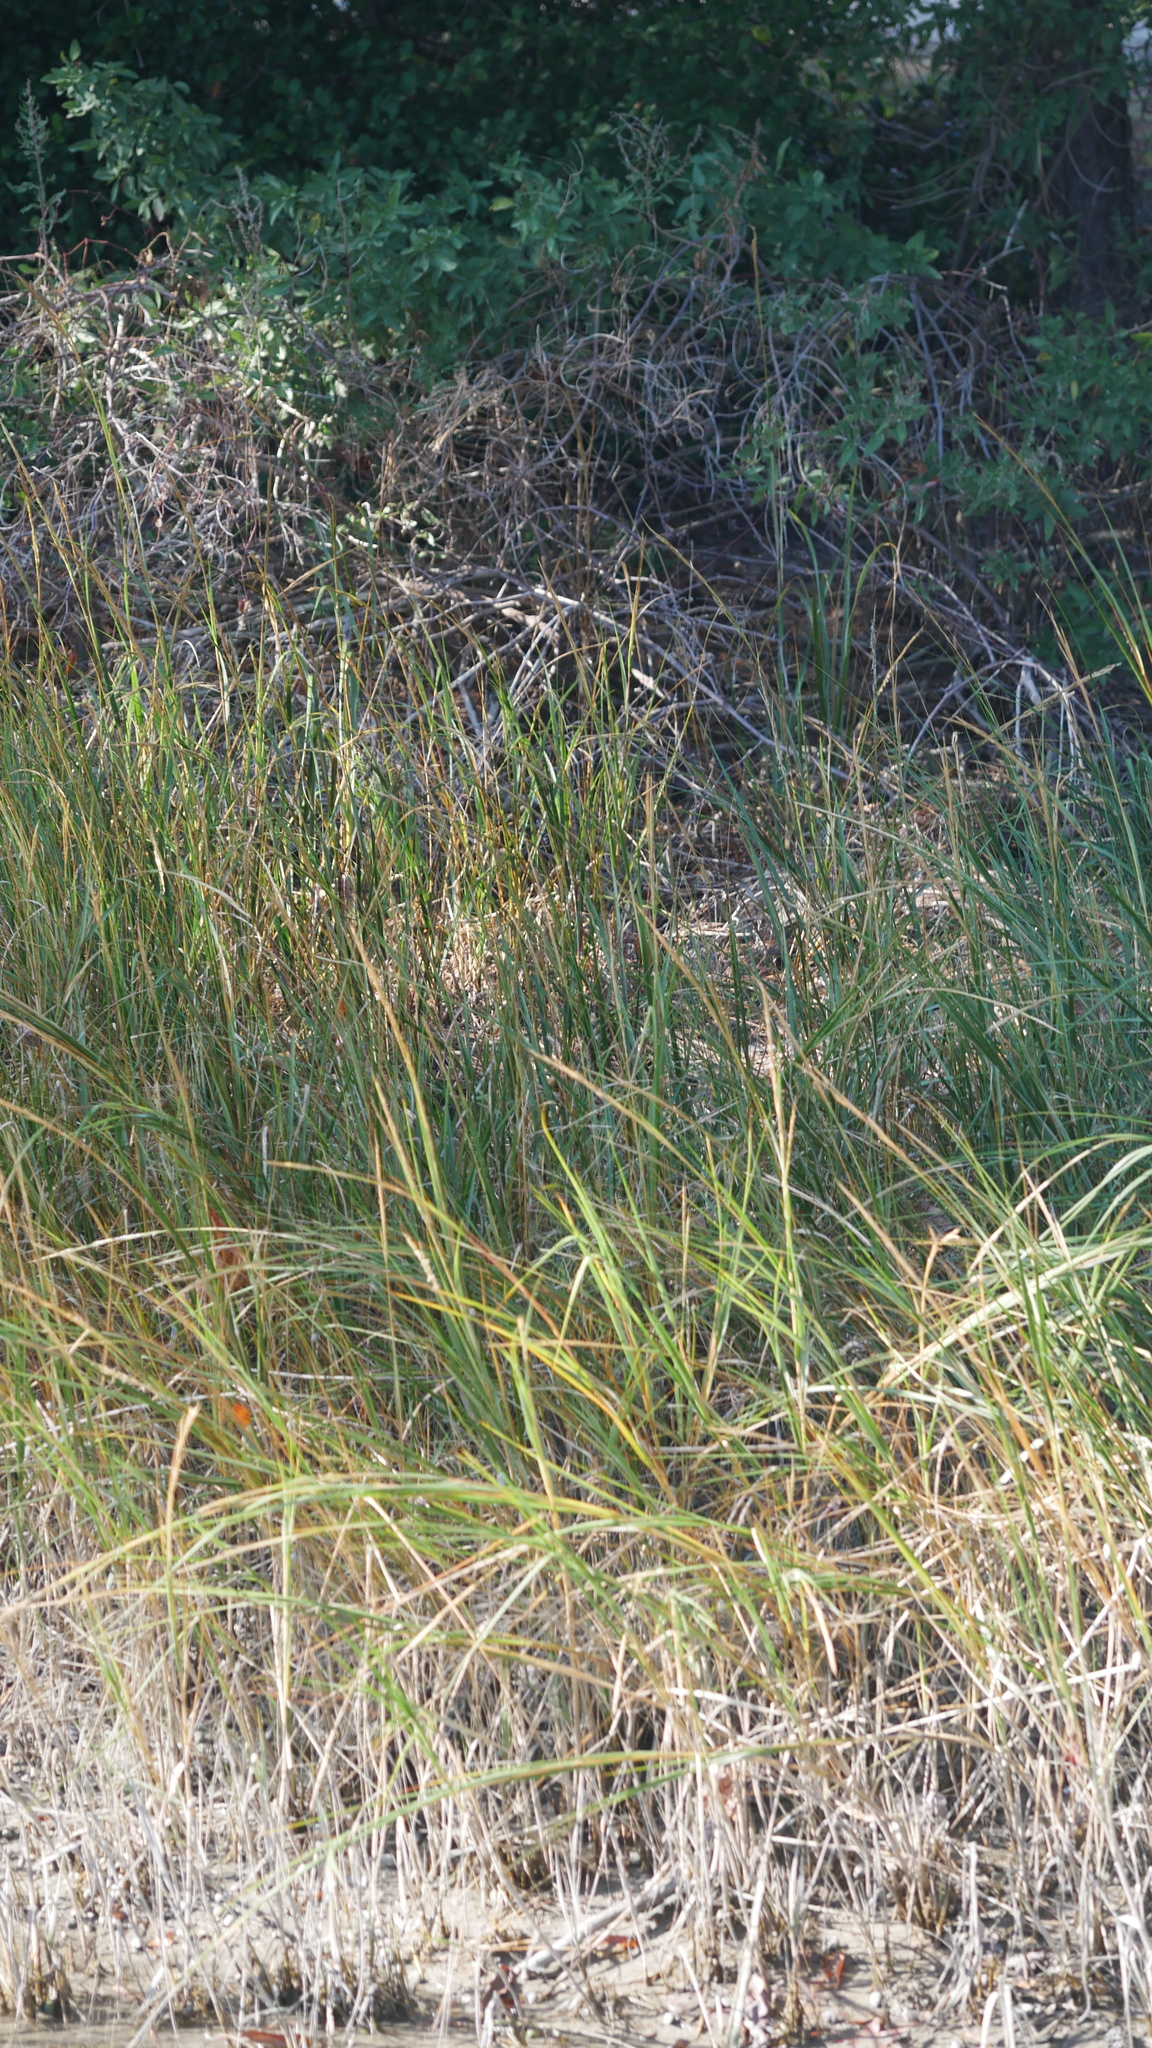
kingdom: Animalia
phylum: Arthropoda
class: Malacostraca
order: Isopoda
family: Detonidae
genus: Armadilloniscus
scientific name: Armadilloniscus ellipticus
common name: Pillbug
